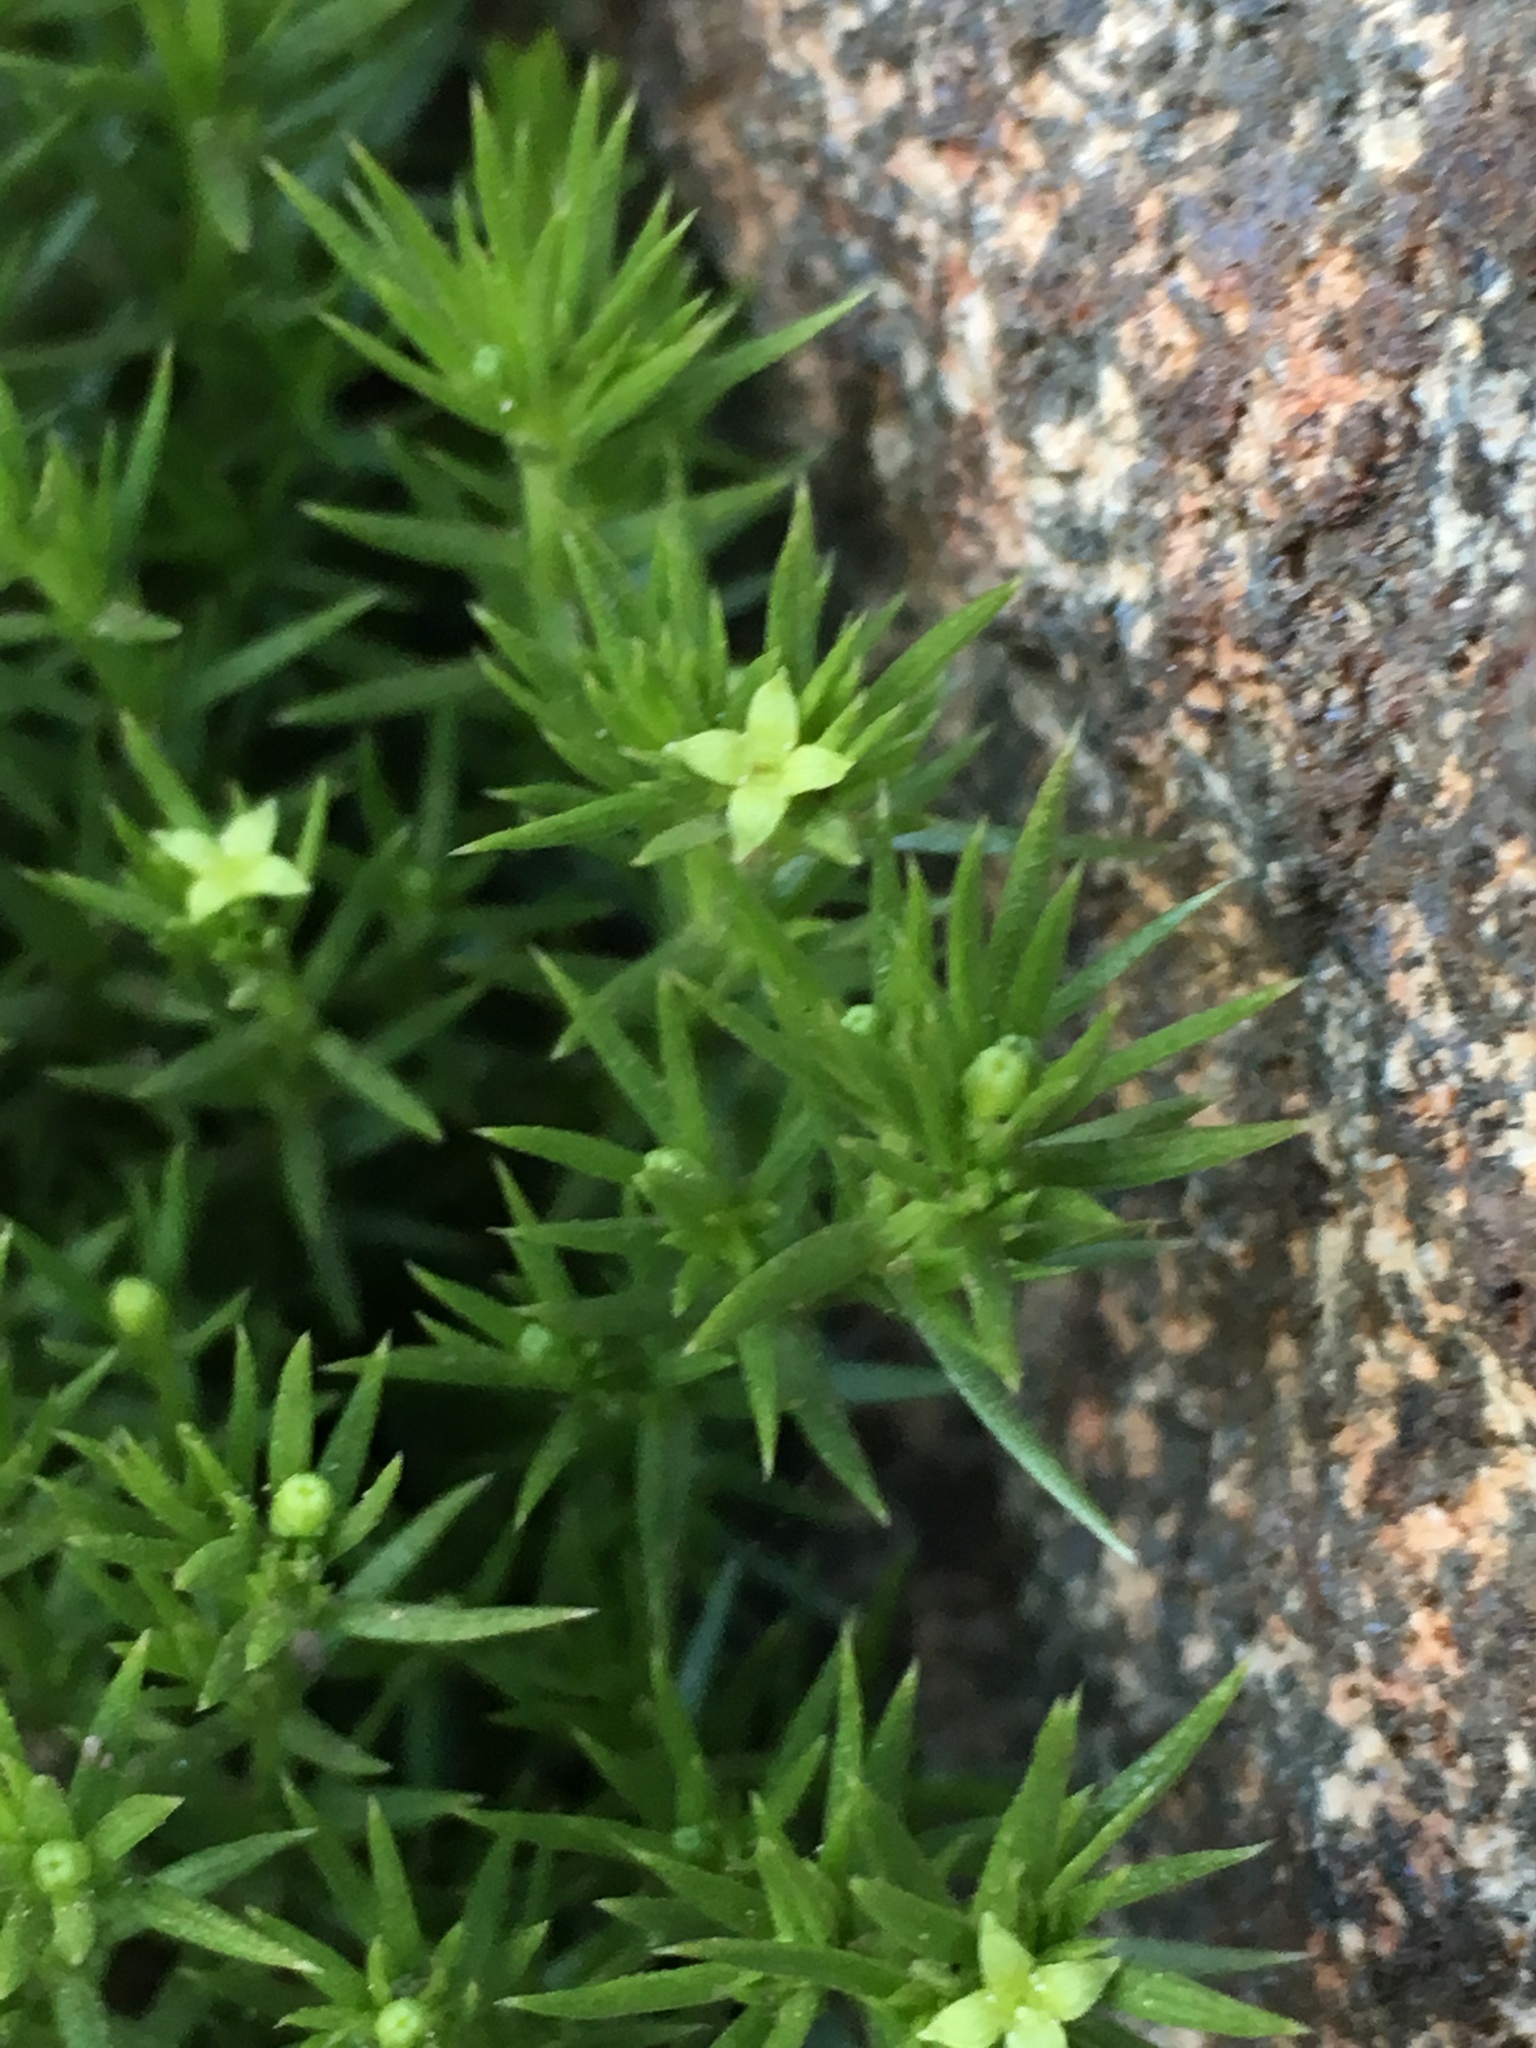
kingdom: Plantae
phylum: Tracheophyta
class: Magnoliopsida
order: Gentianales
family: Rubiaceae
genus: Galium
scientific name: Galium andrewsii
